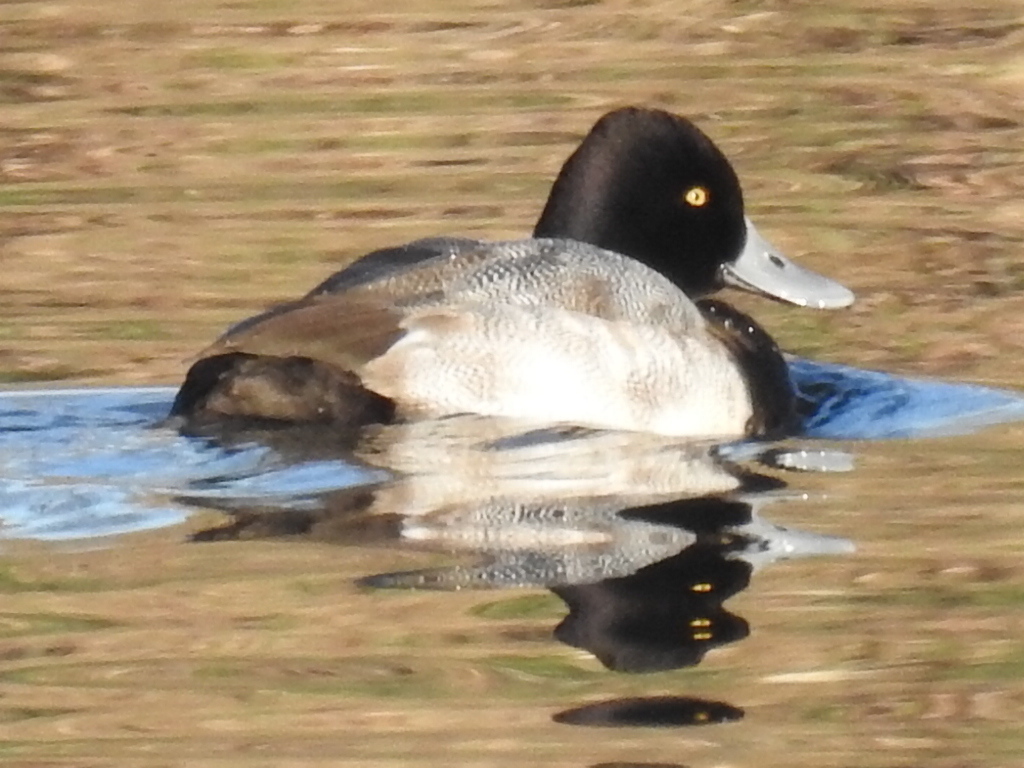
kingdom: Animalia
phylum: Chordata
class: Aves
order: Anseriformes
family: Anatidae
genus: Aythya
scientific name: Aythya affinis
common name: Lesser scaup
